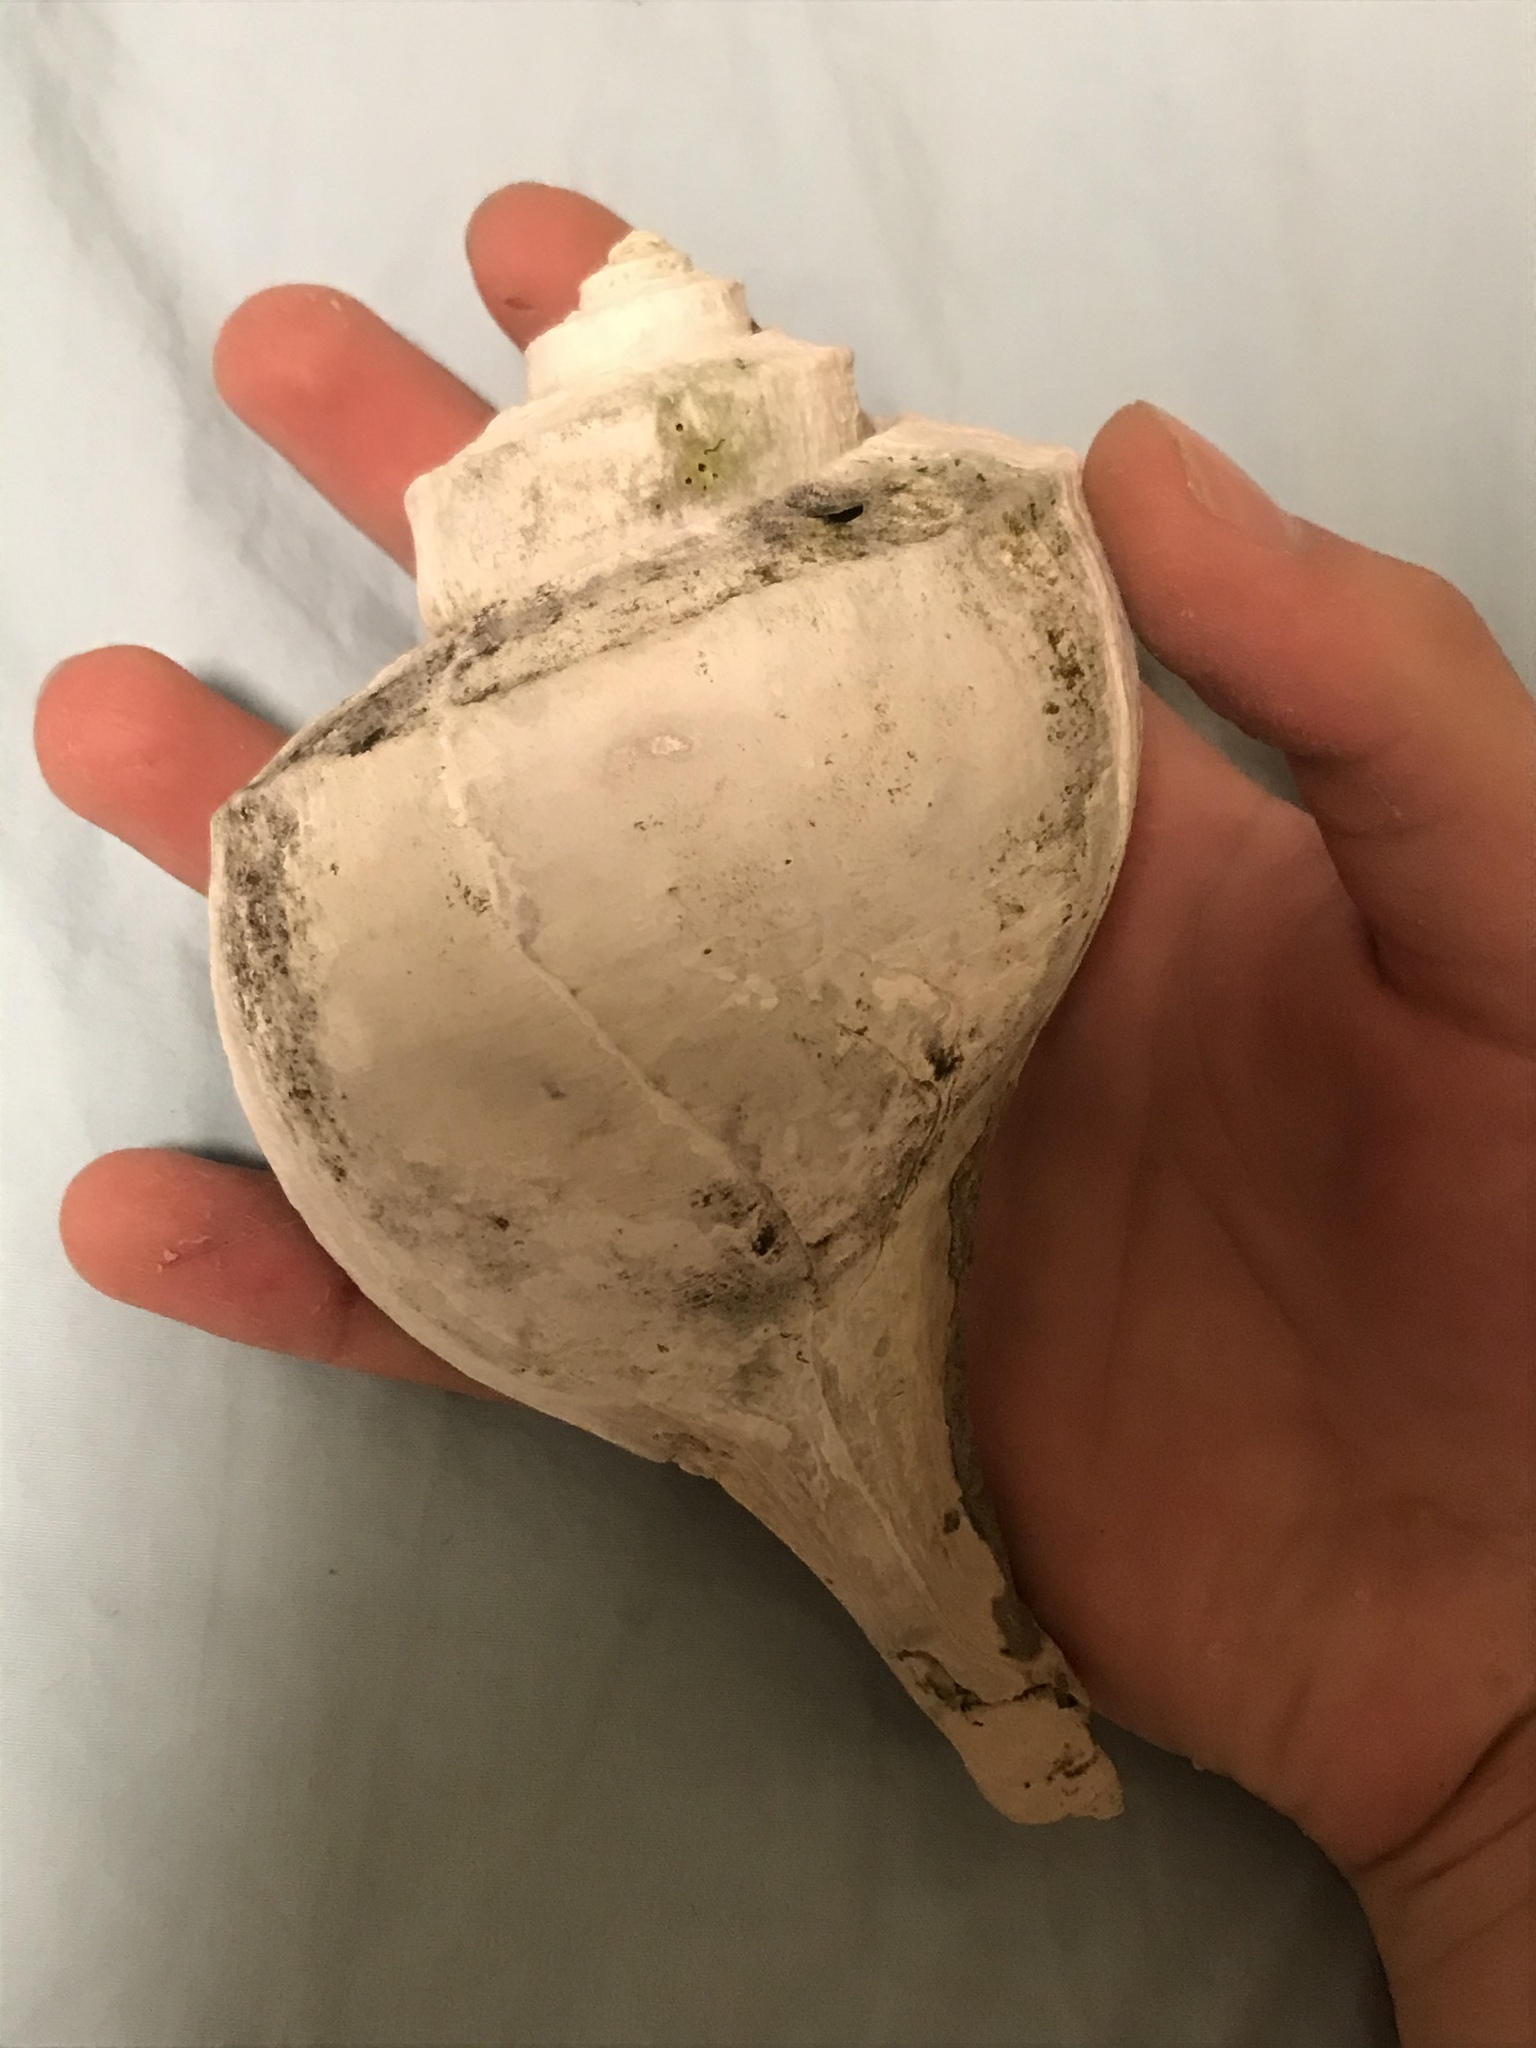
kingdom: Animalia
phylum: Mollusca
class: Gastropoda
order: Neogastropoda
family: Busyconidae
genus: Busycotypus
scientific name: Busycotypus canaliculatus
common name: Channeled whelk
